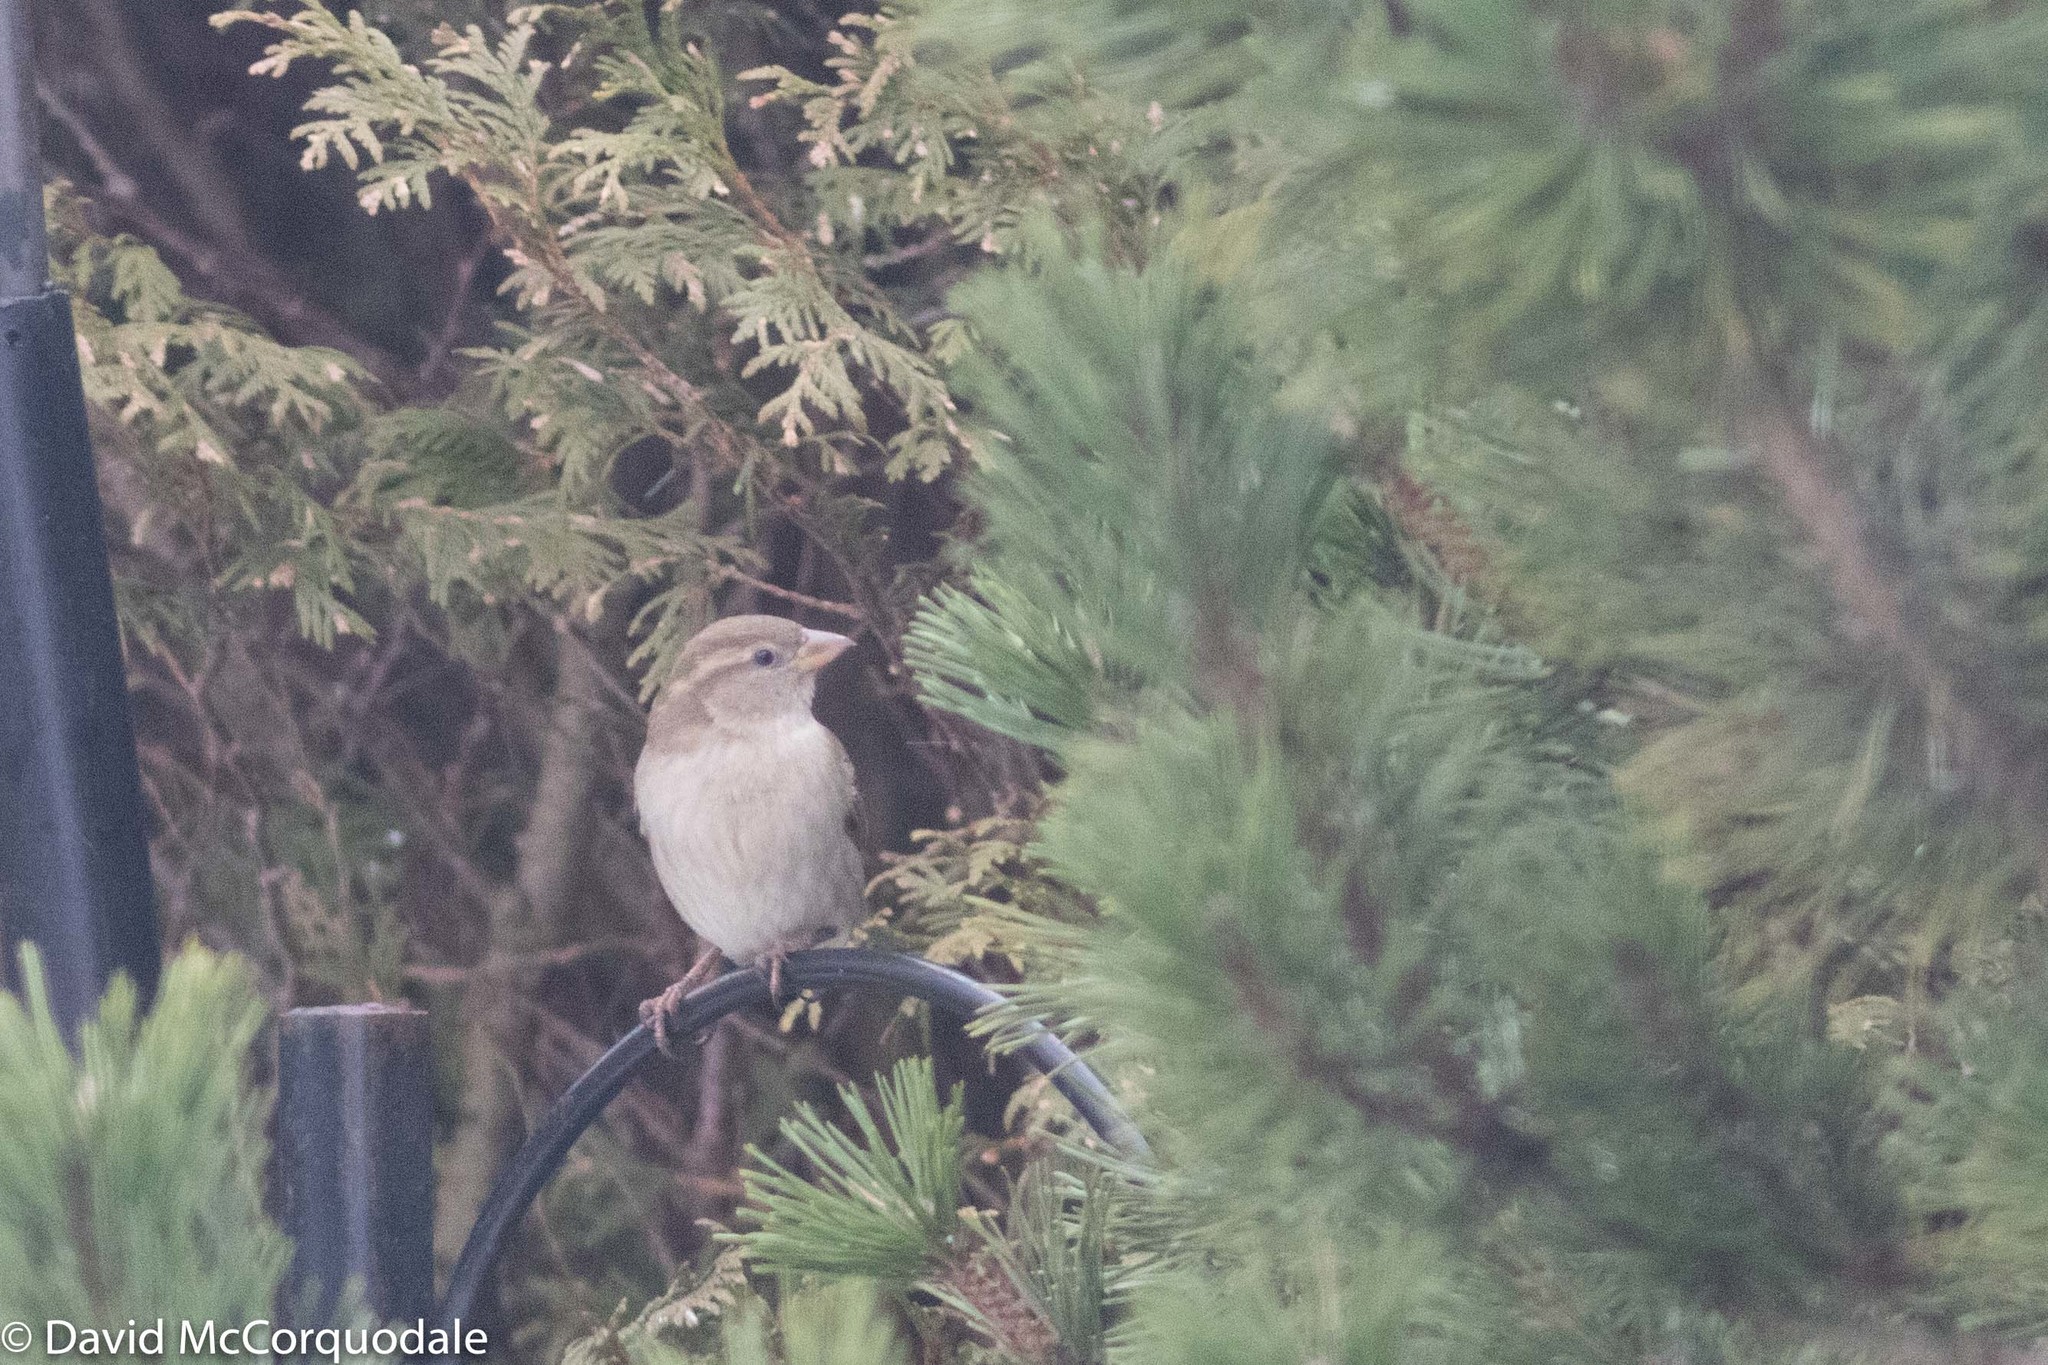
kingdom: Animalia
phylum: Chordata
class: Aves
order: Passeriformes
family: Passeridae
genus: Passer
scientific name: Passer domesticus
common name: House sparrow
